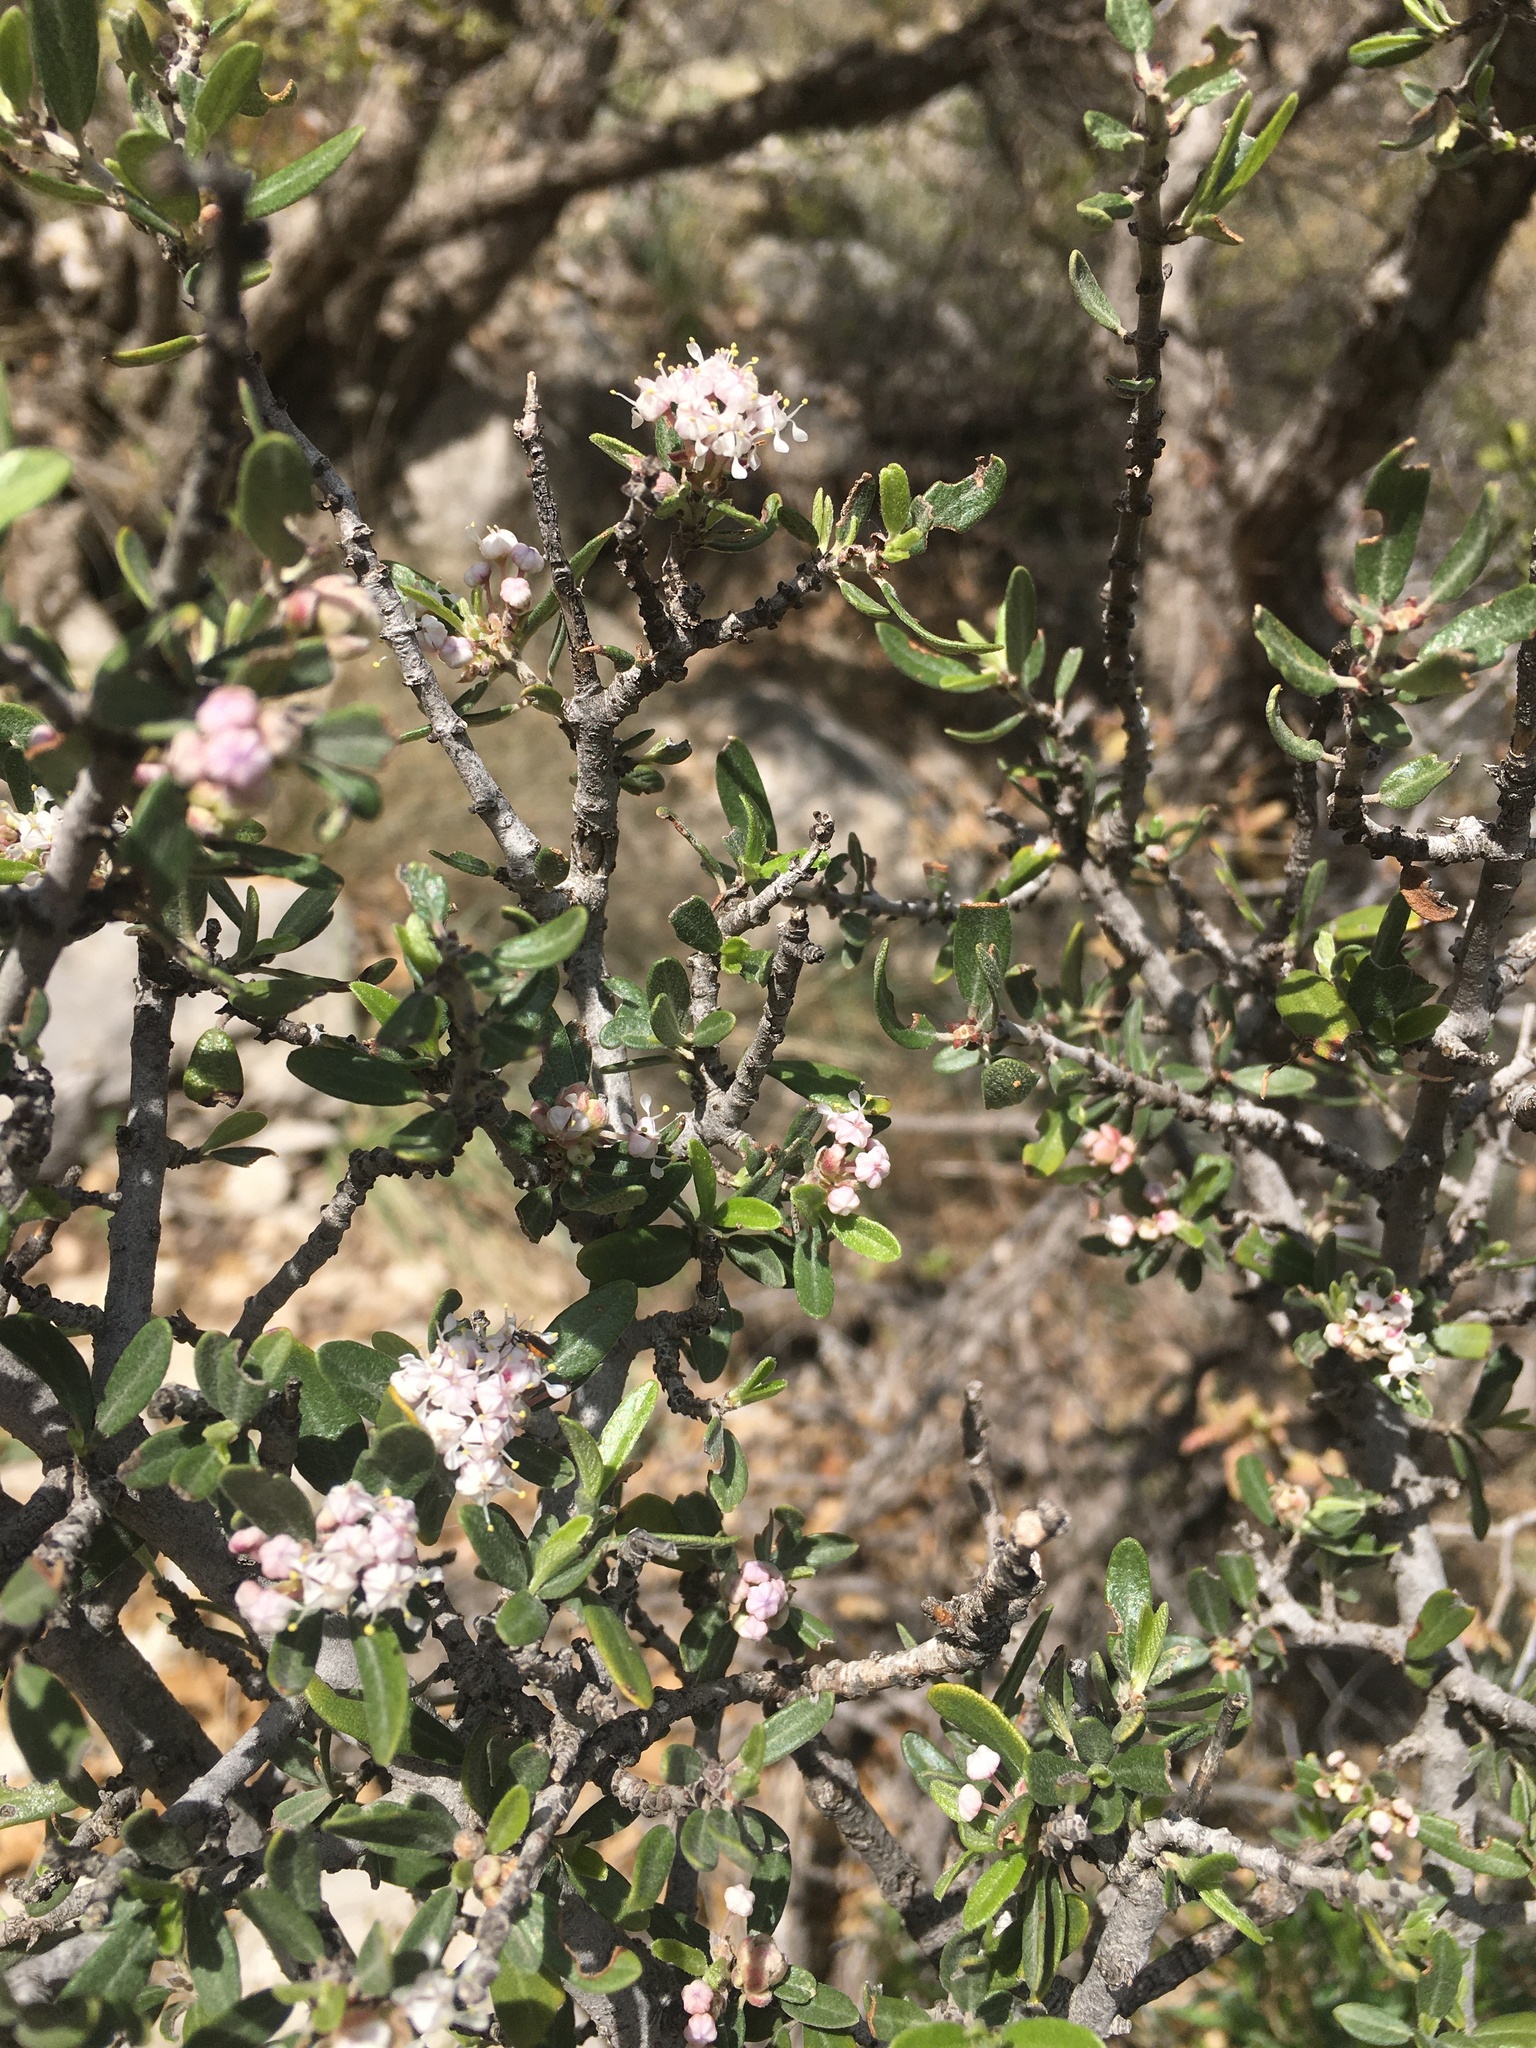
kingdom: Plantae
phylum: Tracheophyta
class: Magnoliopsida
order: Rosales
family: Rhamnaceae
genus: Ceanothus
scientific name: Ceanothus pauciflorus
